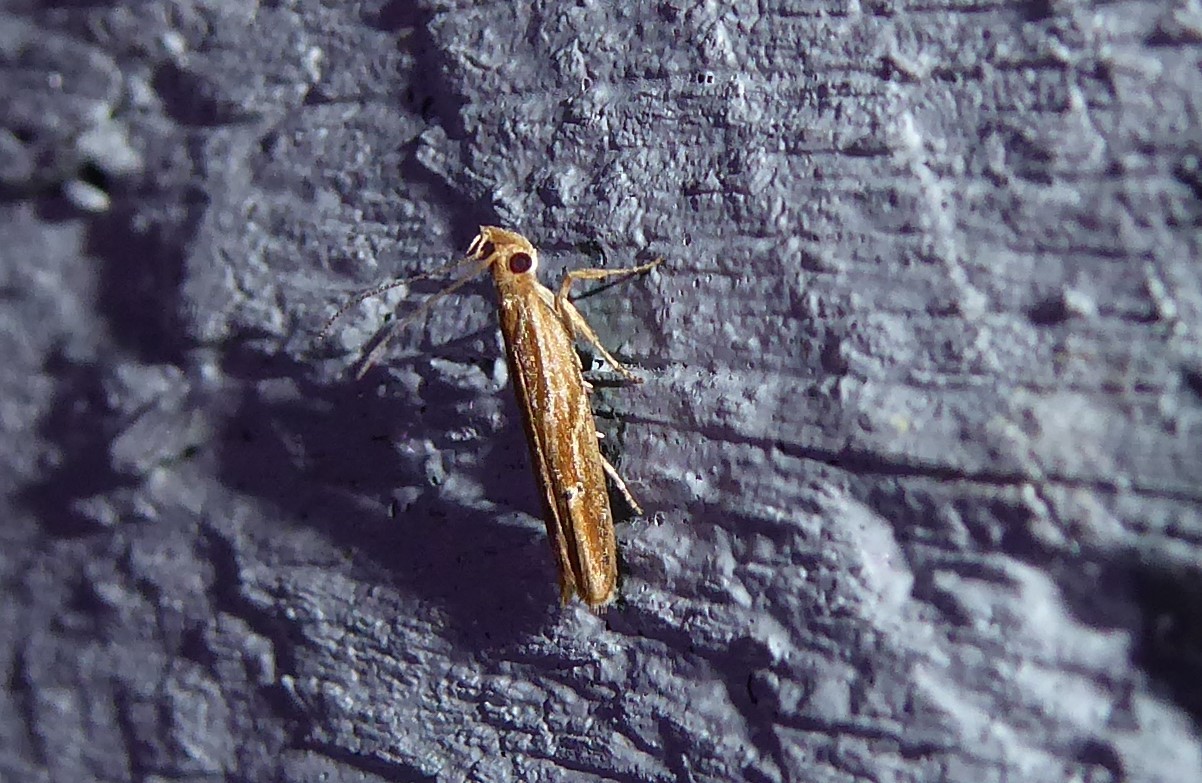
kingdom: Animalia
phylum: Arthropoda
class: Insecta
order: Lepidoptera
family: Depressariidae
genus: Eutorna
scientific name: Eutorna symmorpha
